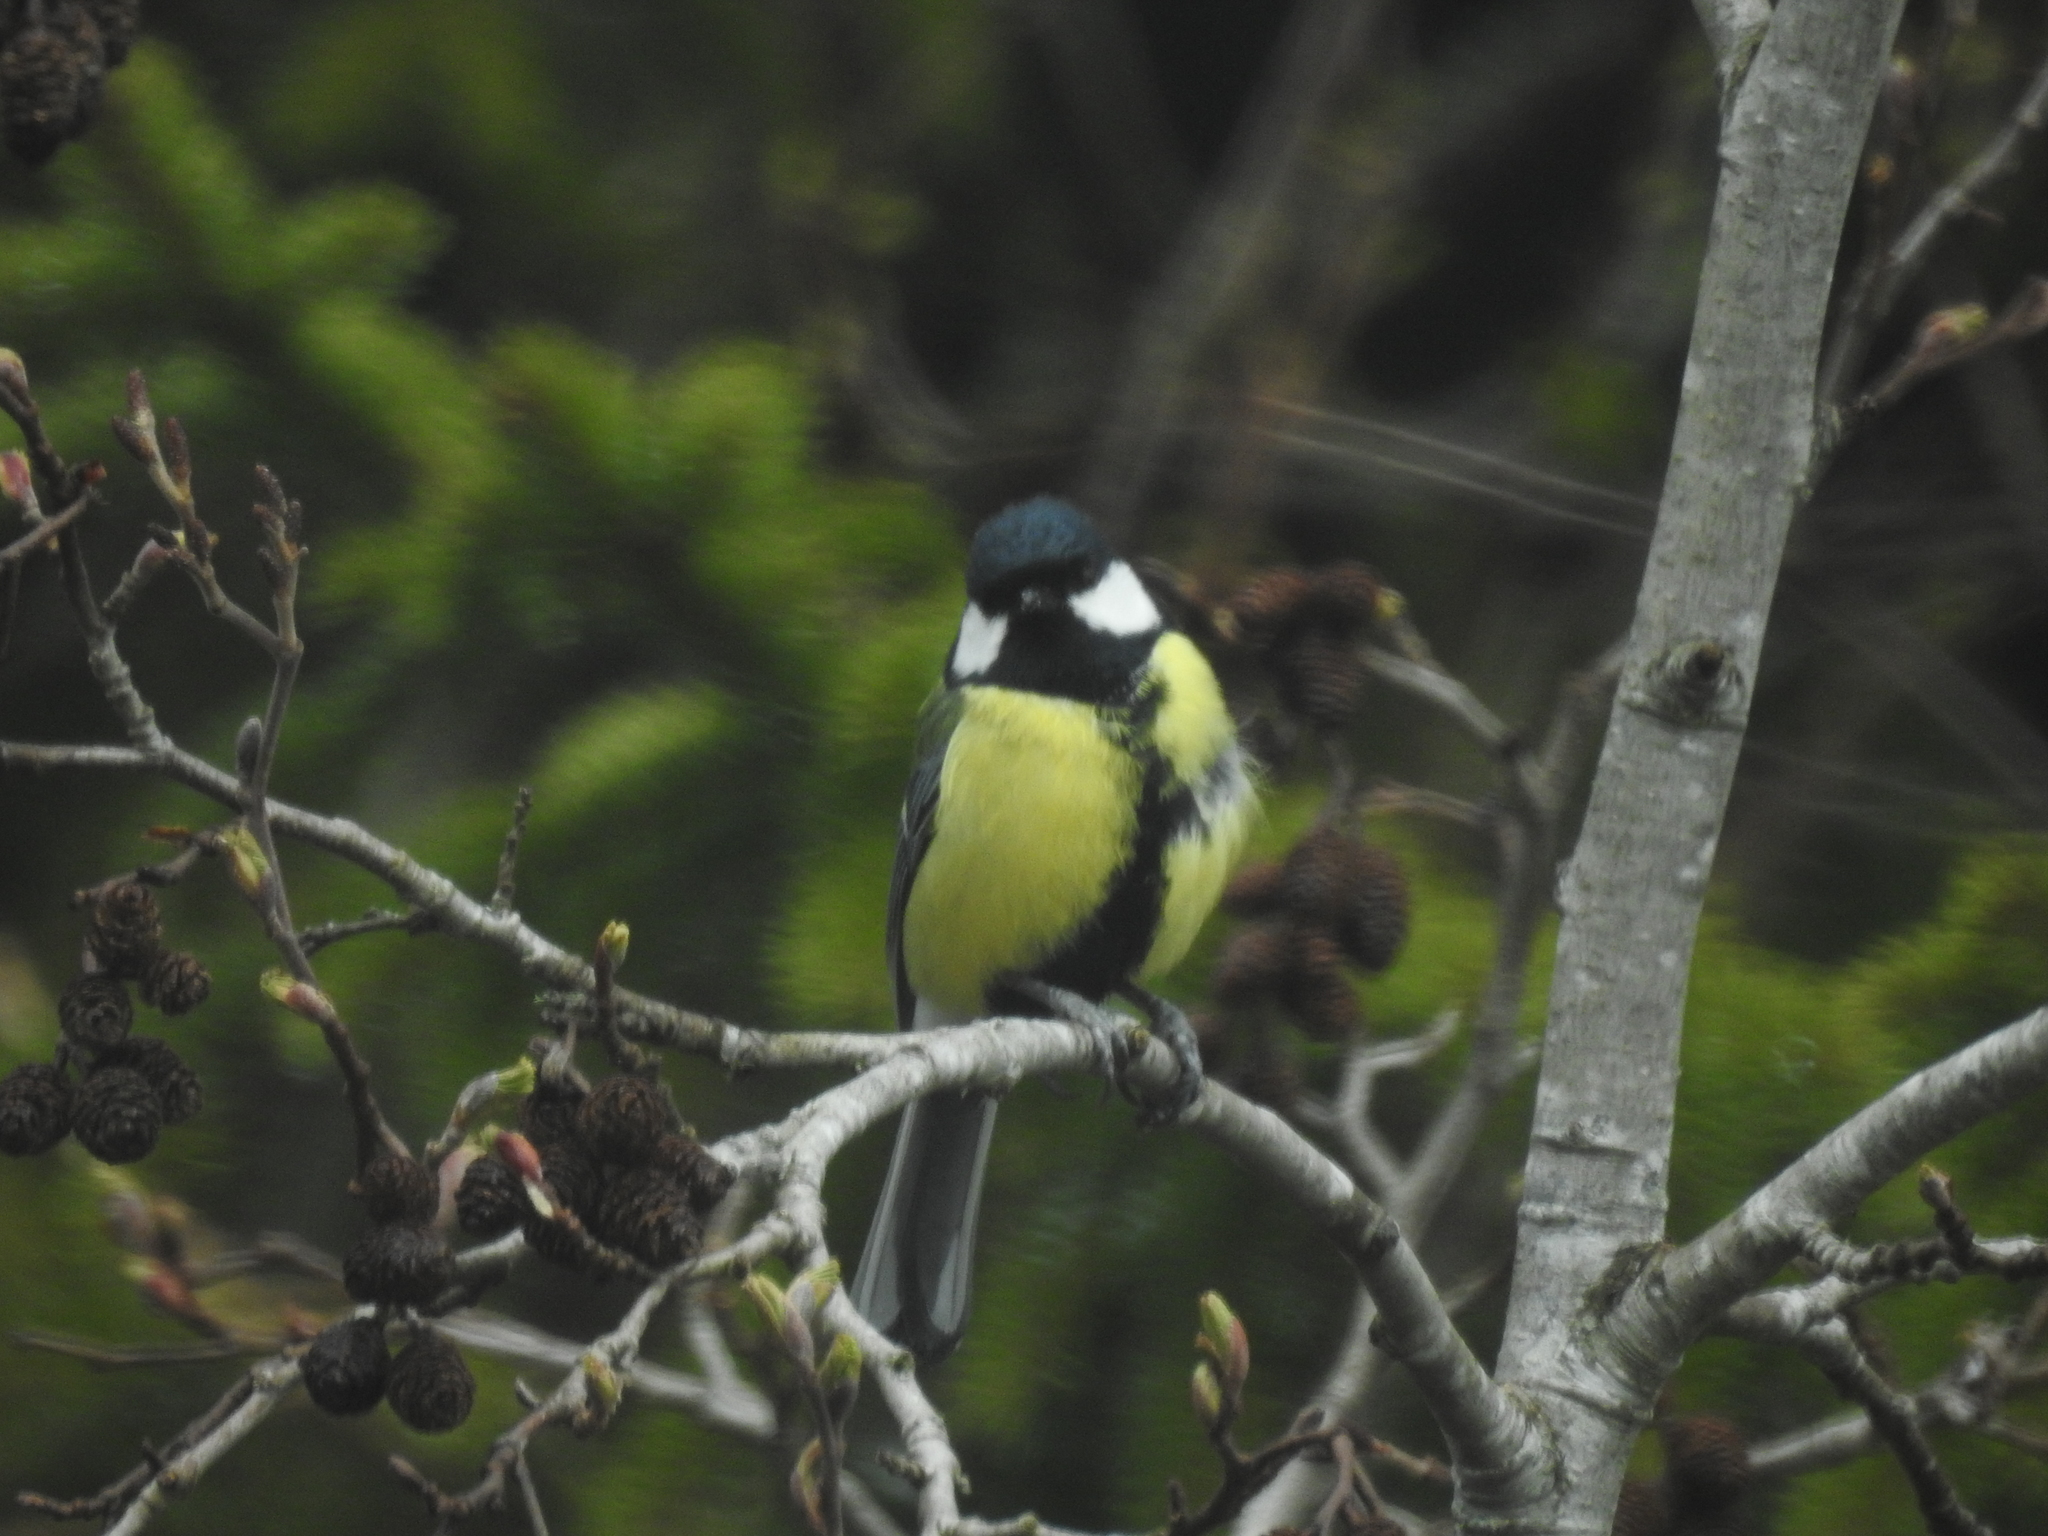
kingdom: Animalia
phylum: Chordata
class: Aves
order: Passeriformes
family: Paridae
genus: Parus
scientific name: Parus major
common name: Great tit
